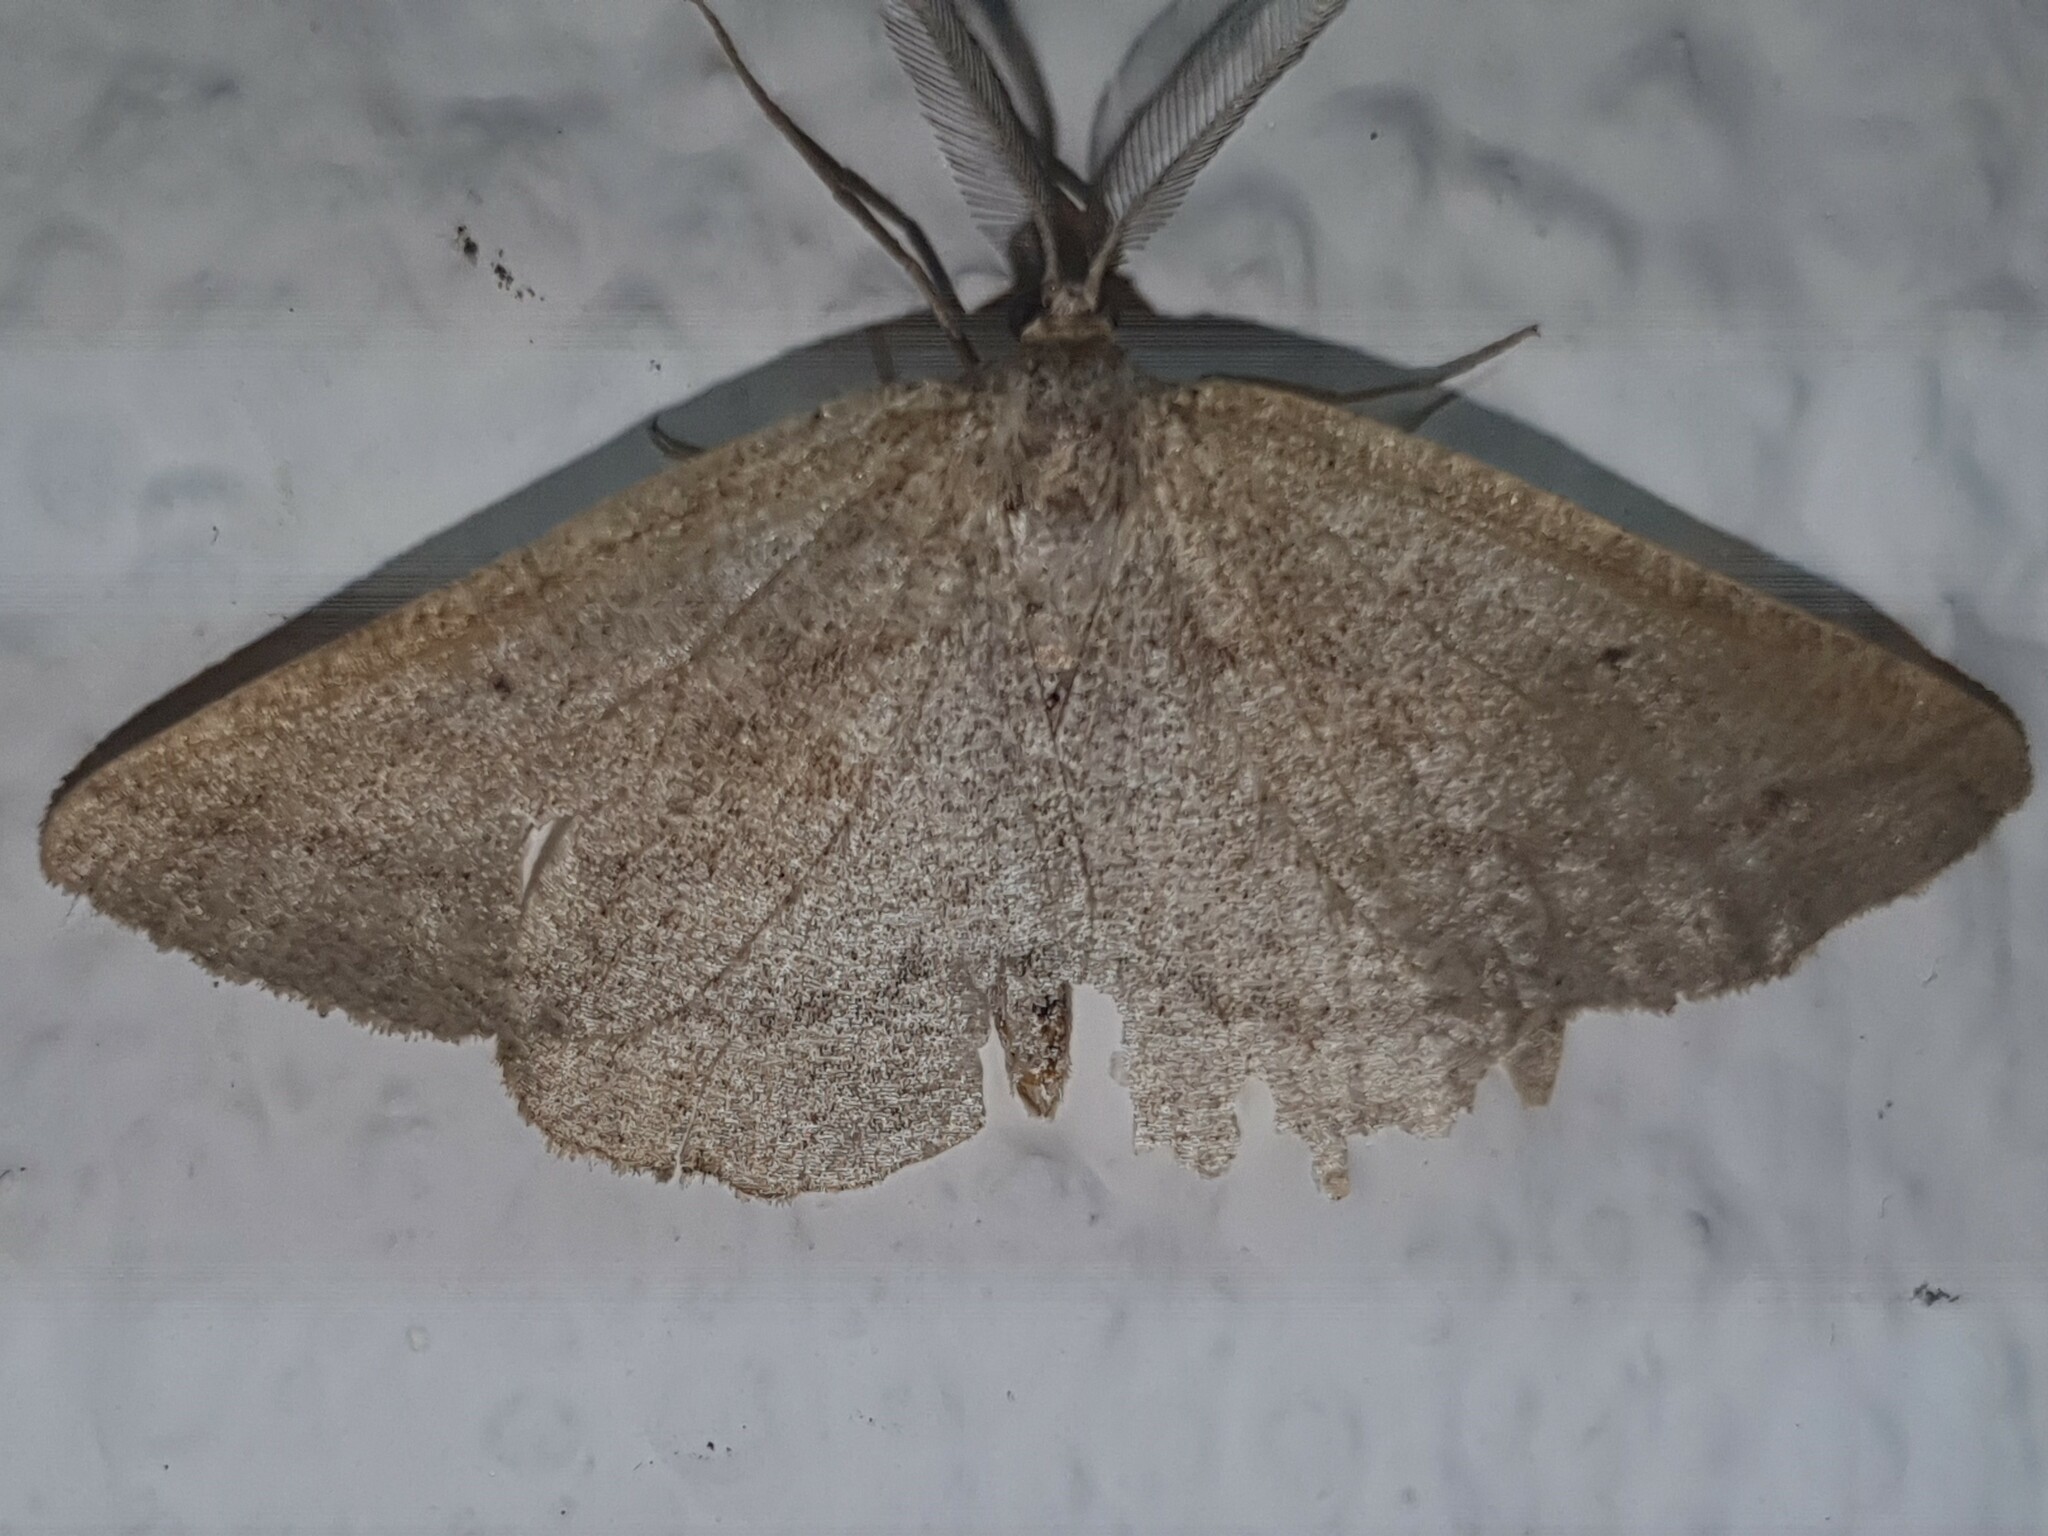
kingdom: Animalia
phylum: Arthropoda
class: Insecta
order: Lepidoptera
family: Geometridae
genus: Perconia
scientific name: Perconia baeticaria
